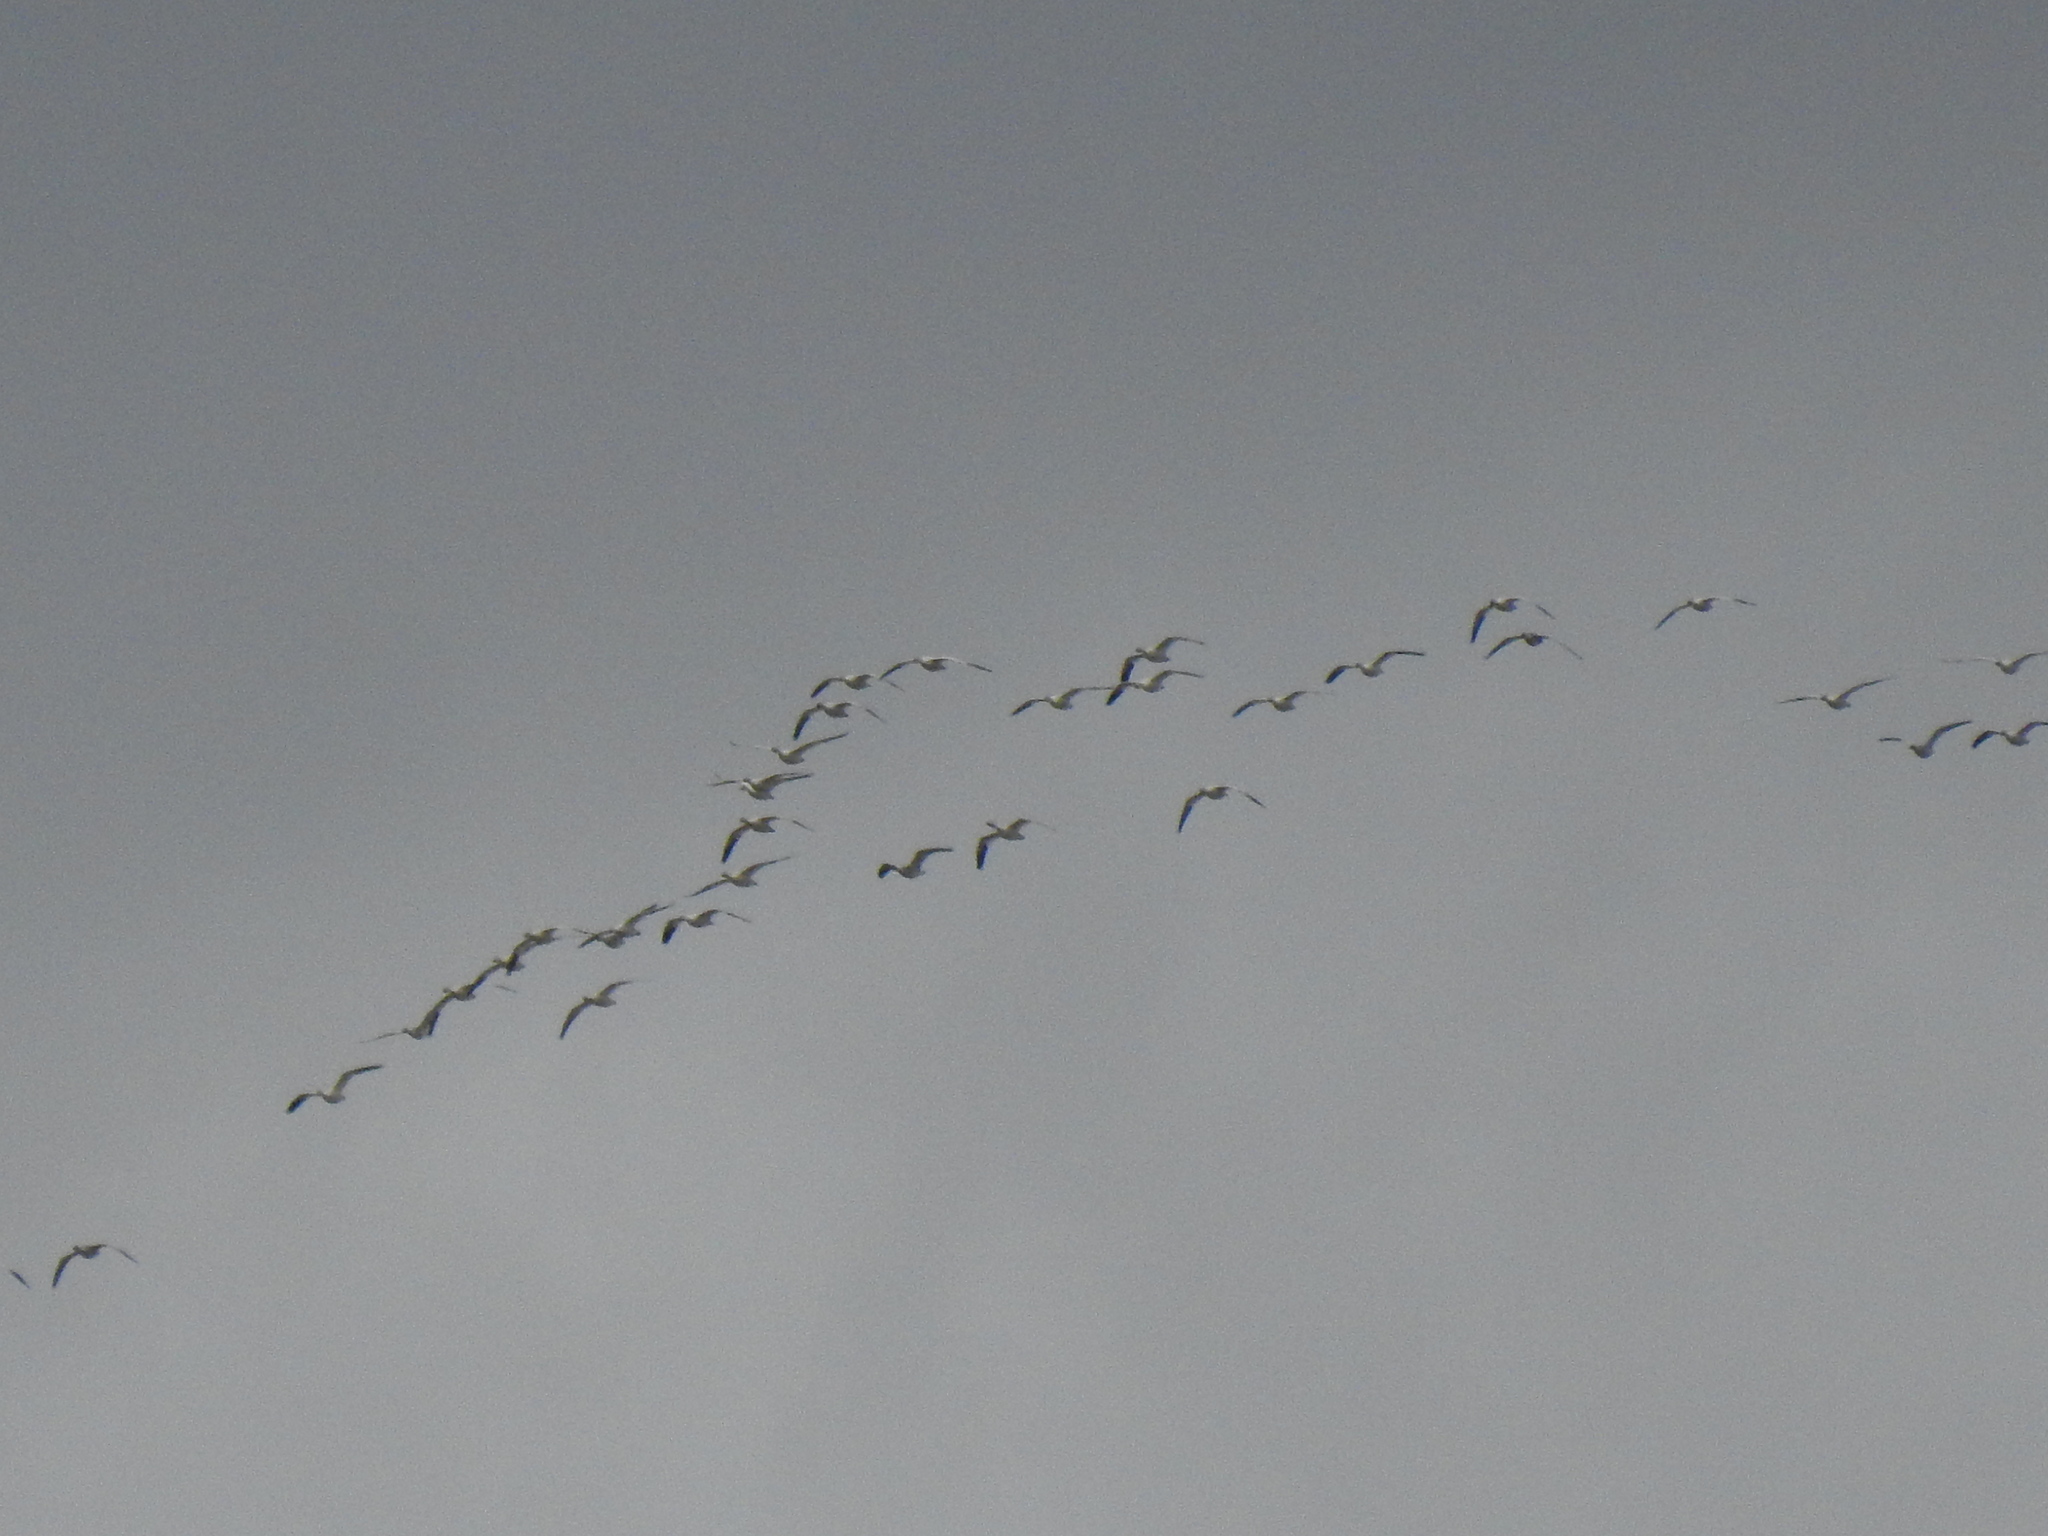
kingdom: Animalia
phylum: Chordata
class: Aves
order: Anseriformes
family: Anatidae
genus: Anser
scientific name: Anser caerulescens
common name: Snow goose
